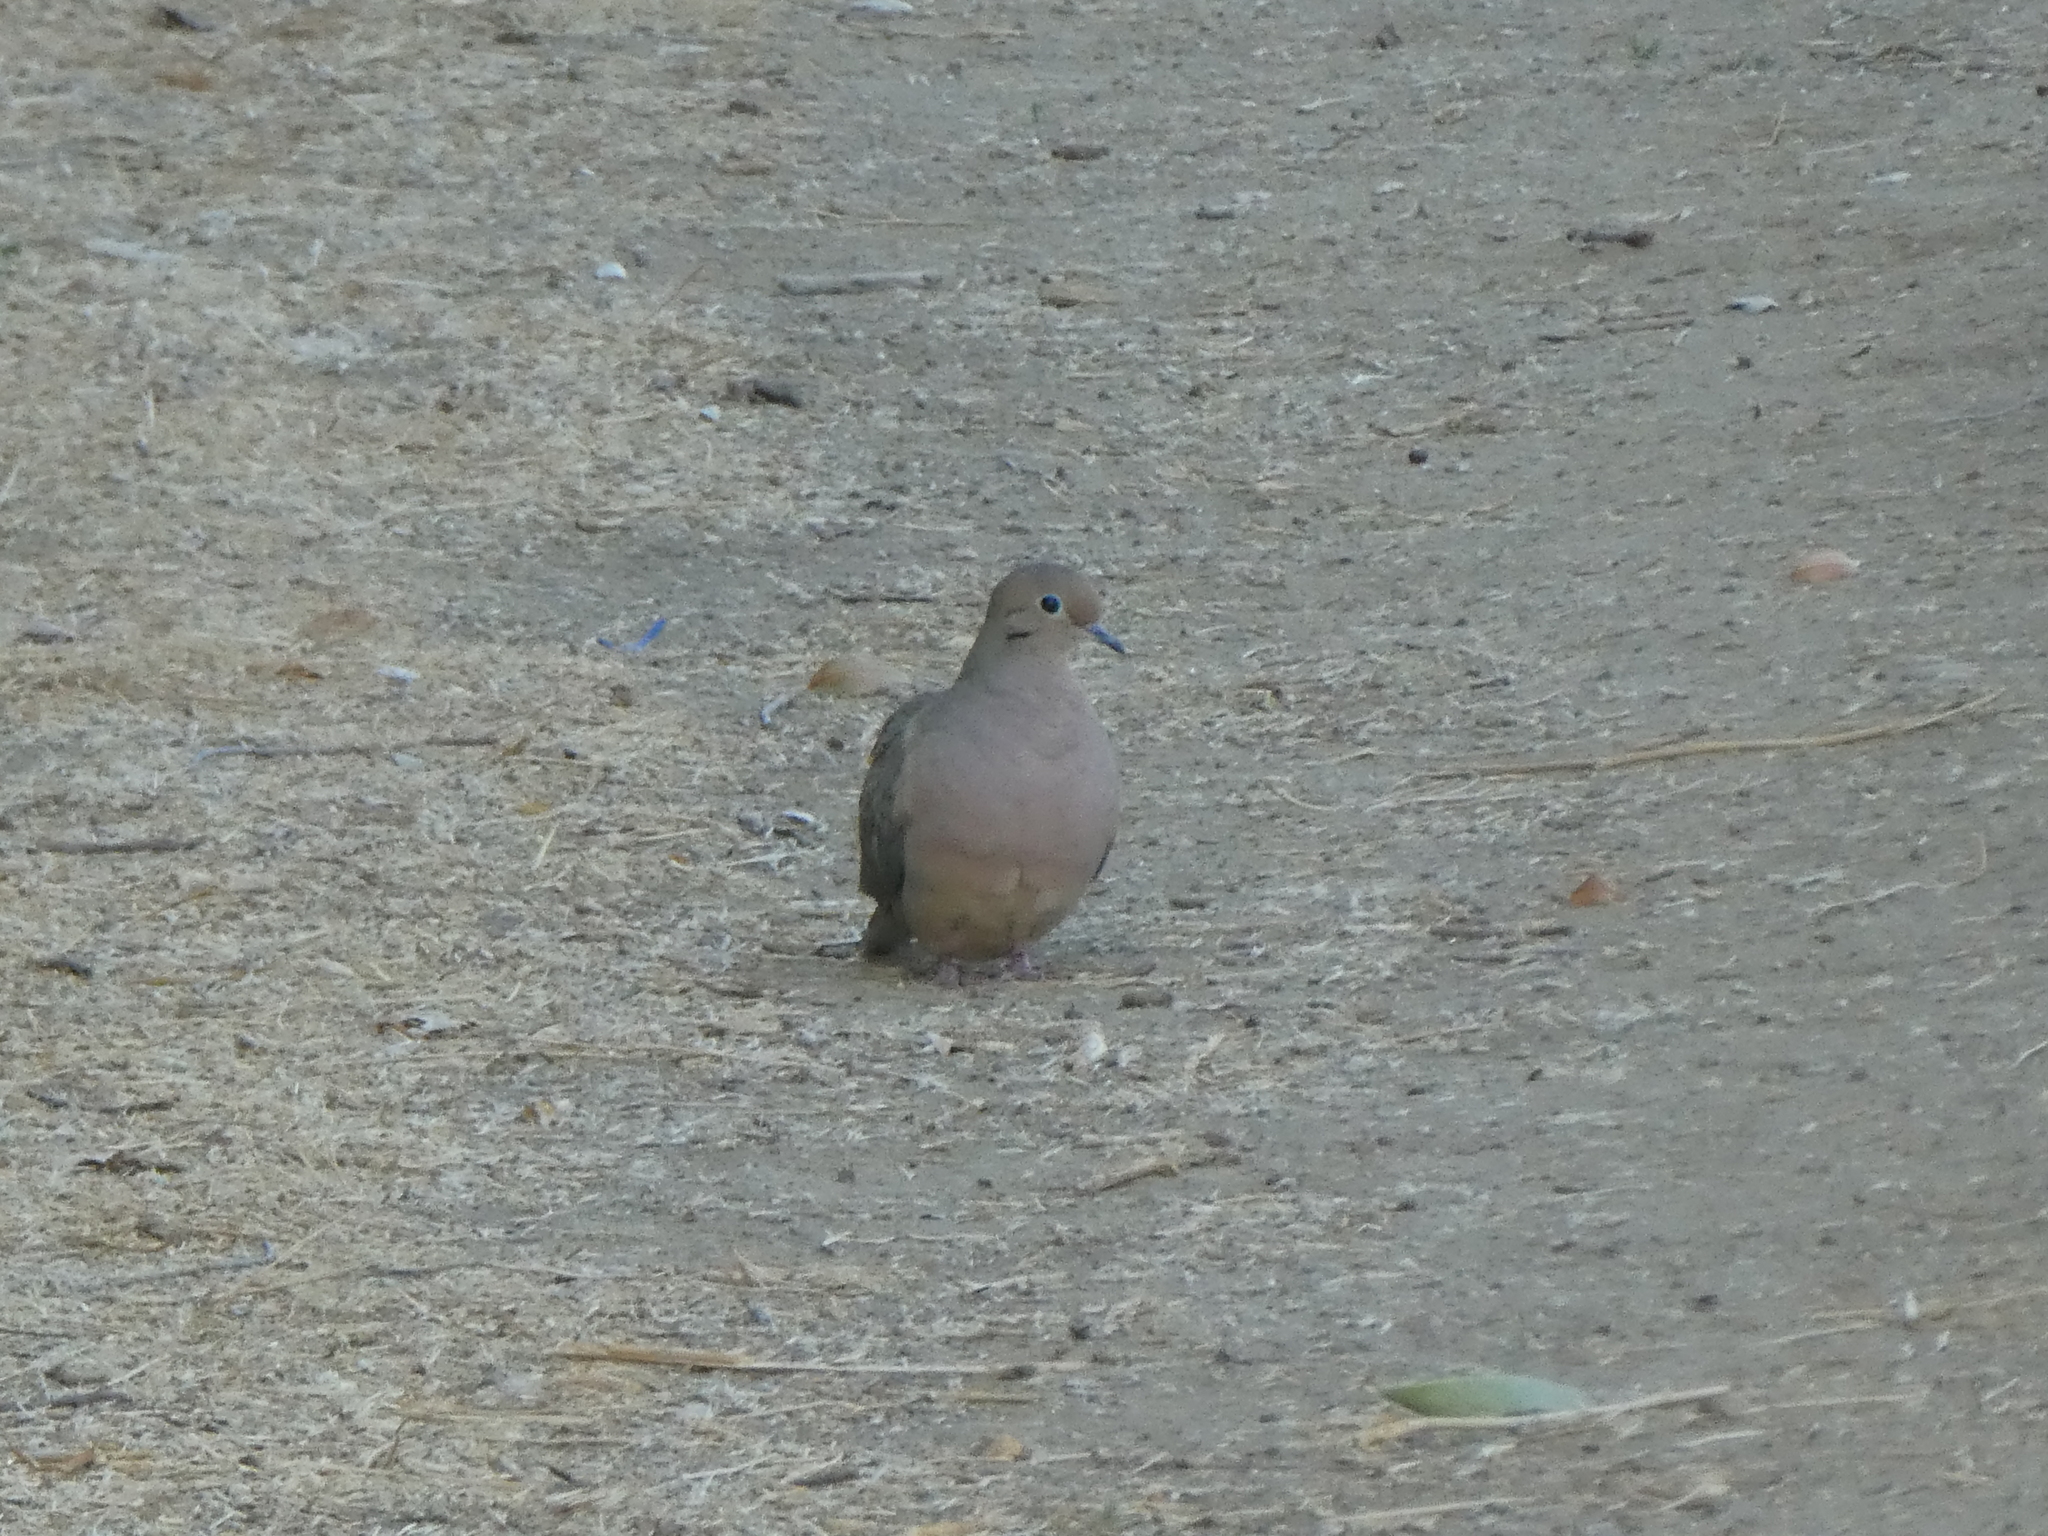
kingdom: Animalia
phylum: Chordata
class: Aves
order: Columbiformes
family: Columbidae
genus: Zenaida
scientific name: Zenaida macroura
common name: Mourning dove
